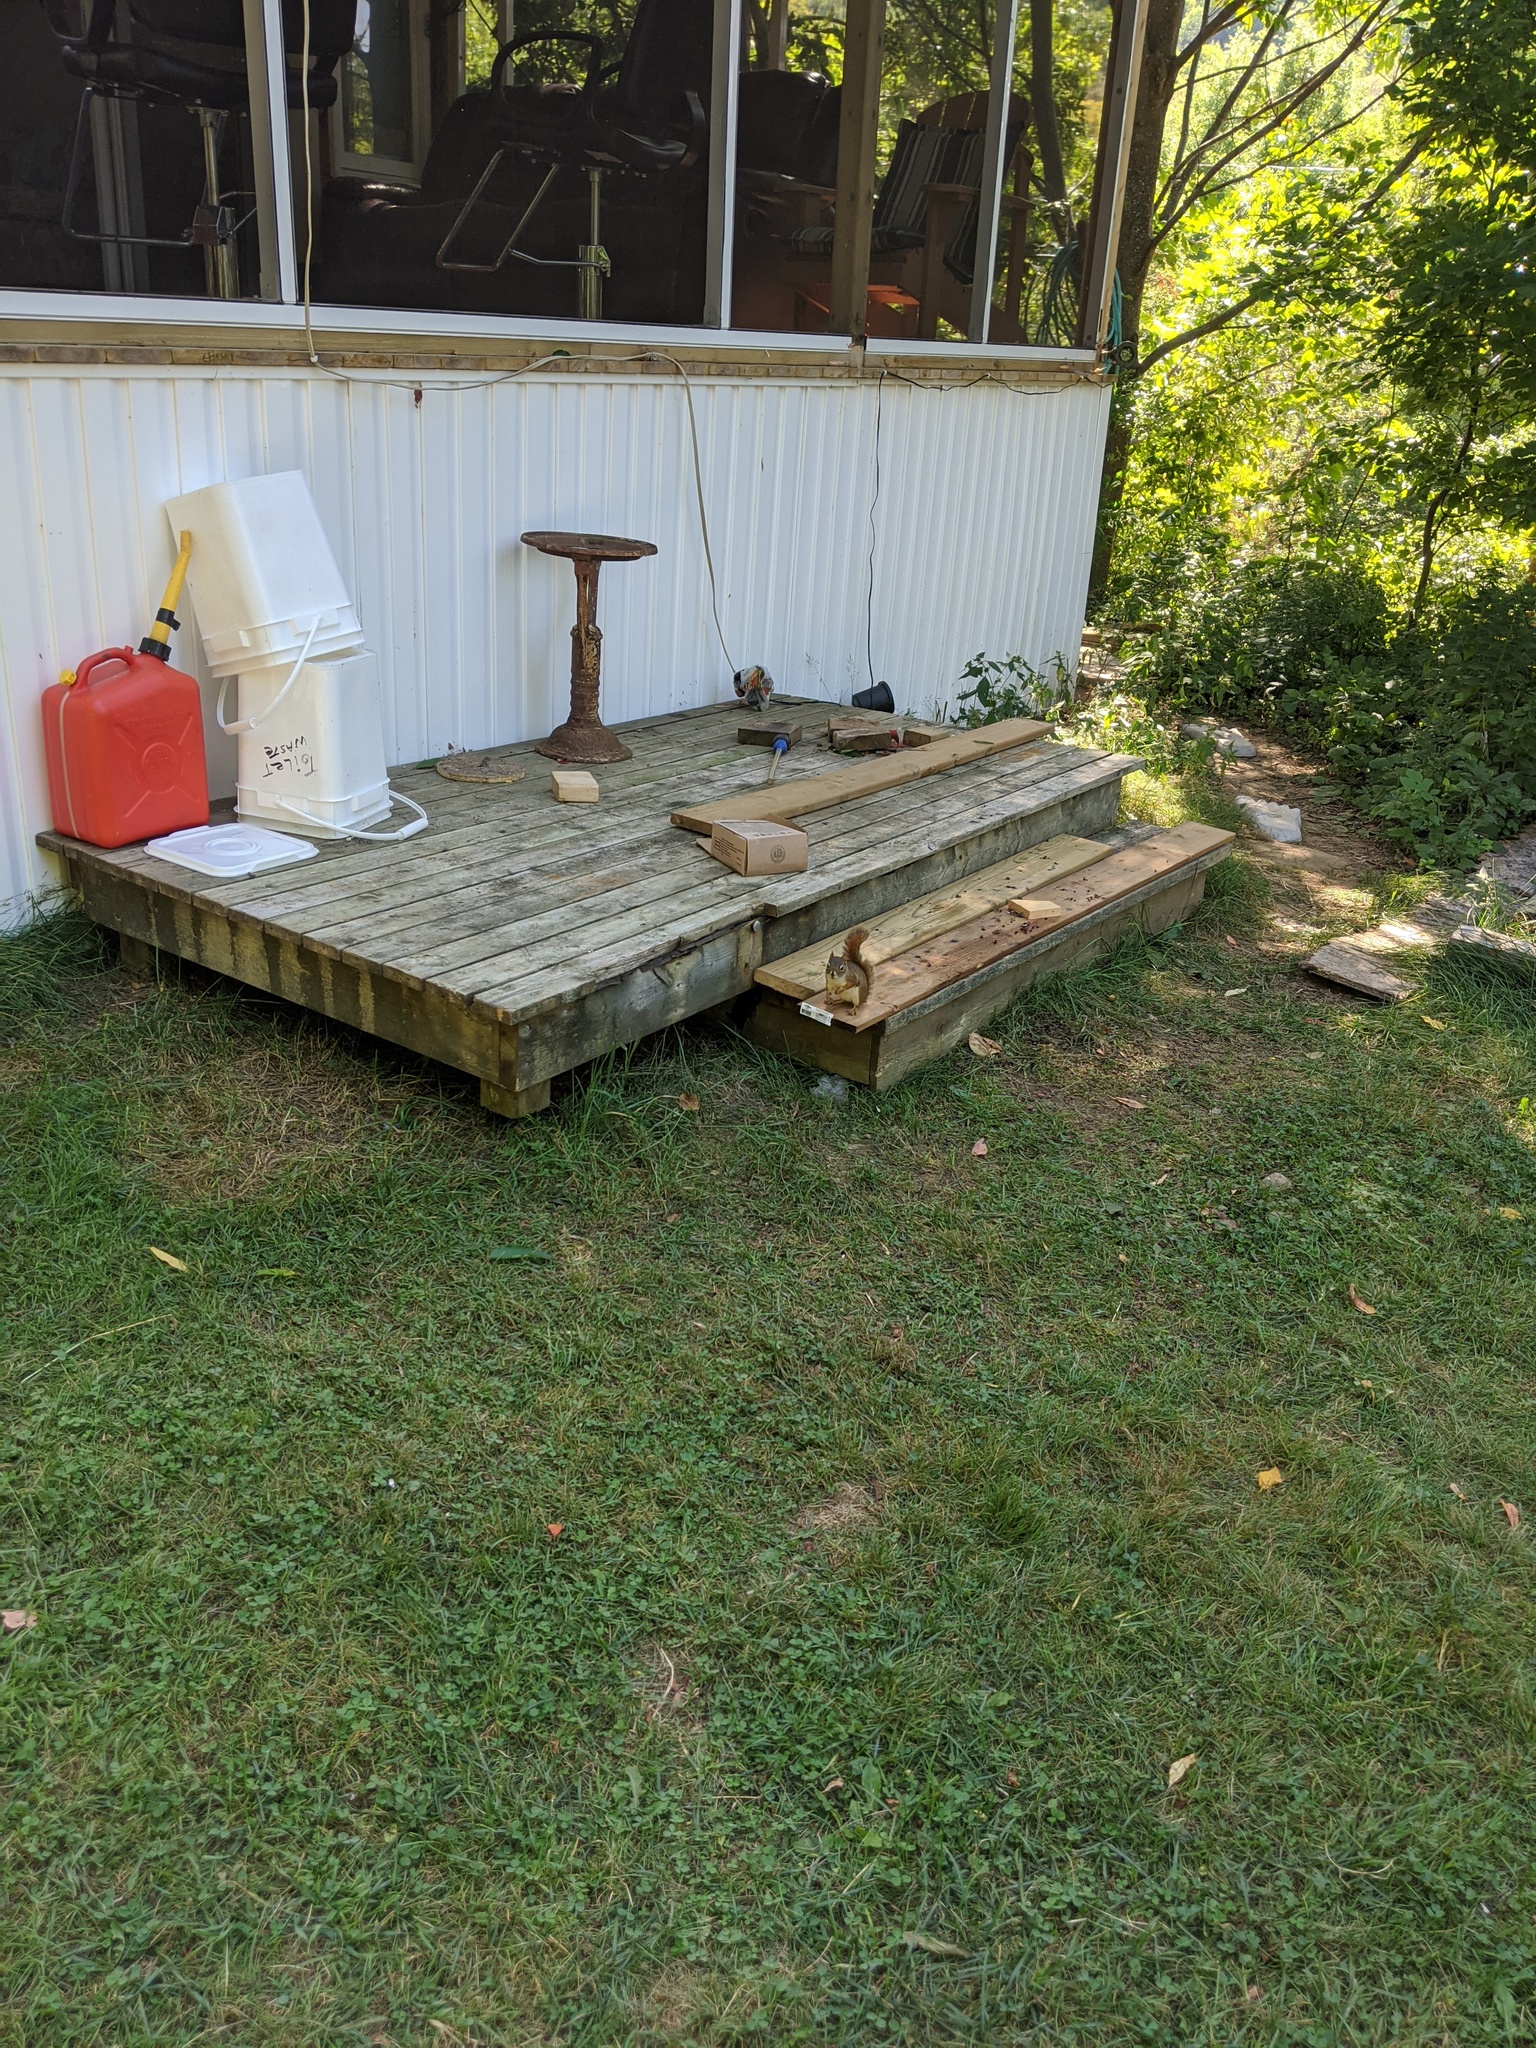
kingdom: Animalia
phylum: Chordata
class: Mammalia
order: Rodentia
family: Sciuridae
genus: Tamiasciurus
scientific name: Tamiasciurus hudsonicus
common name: Red squirrel
